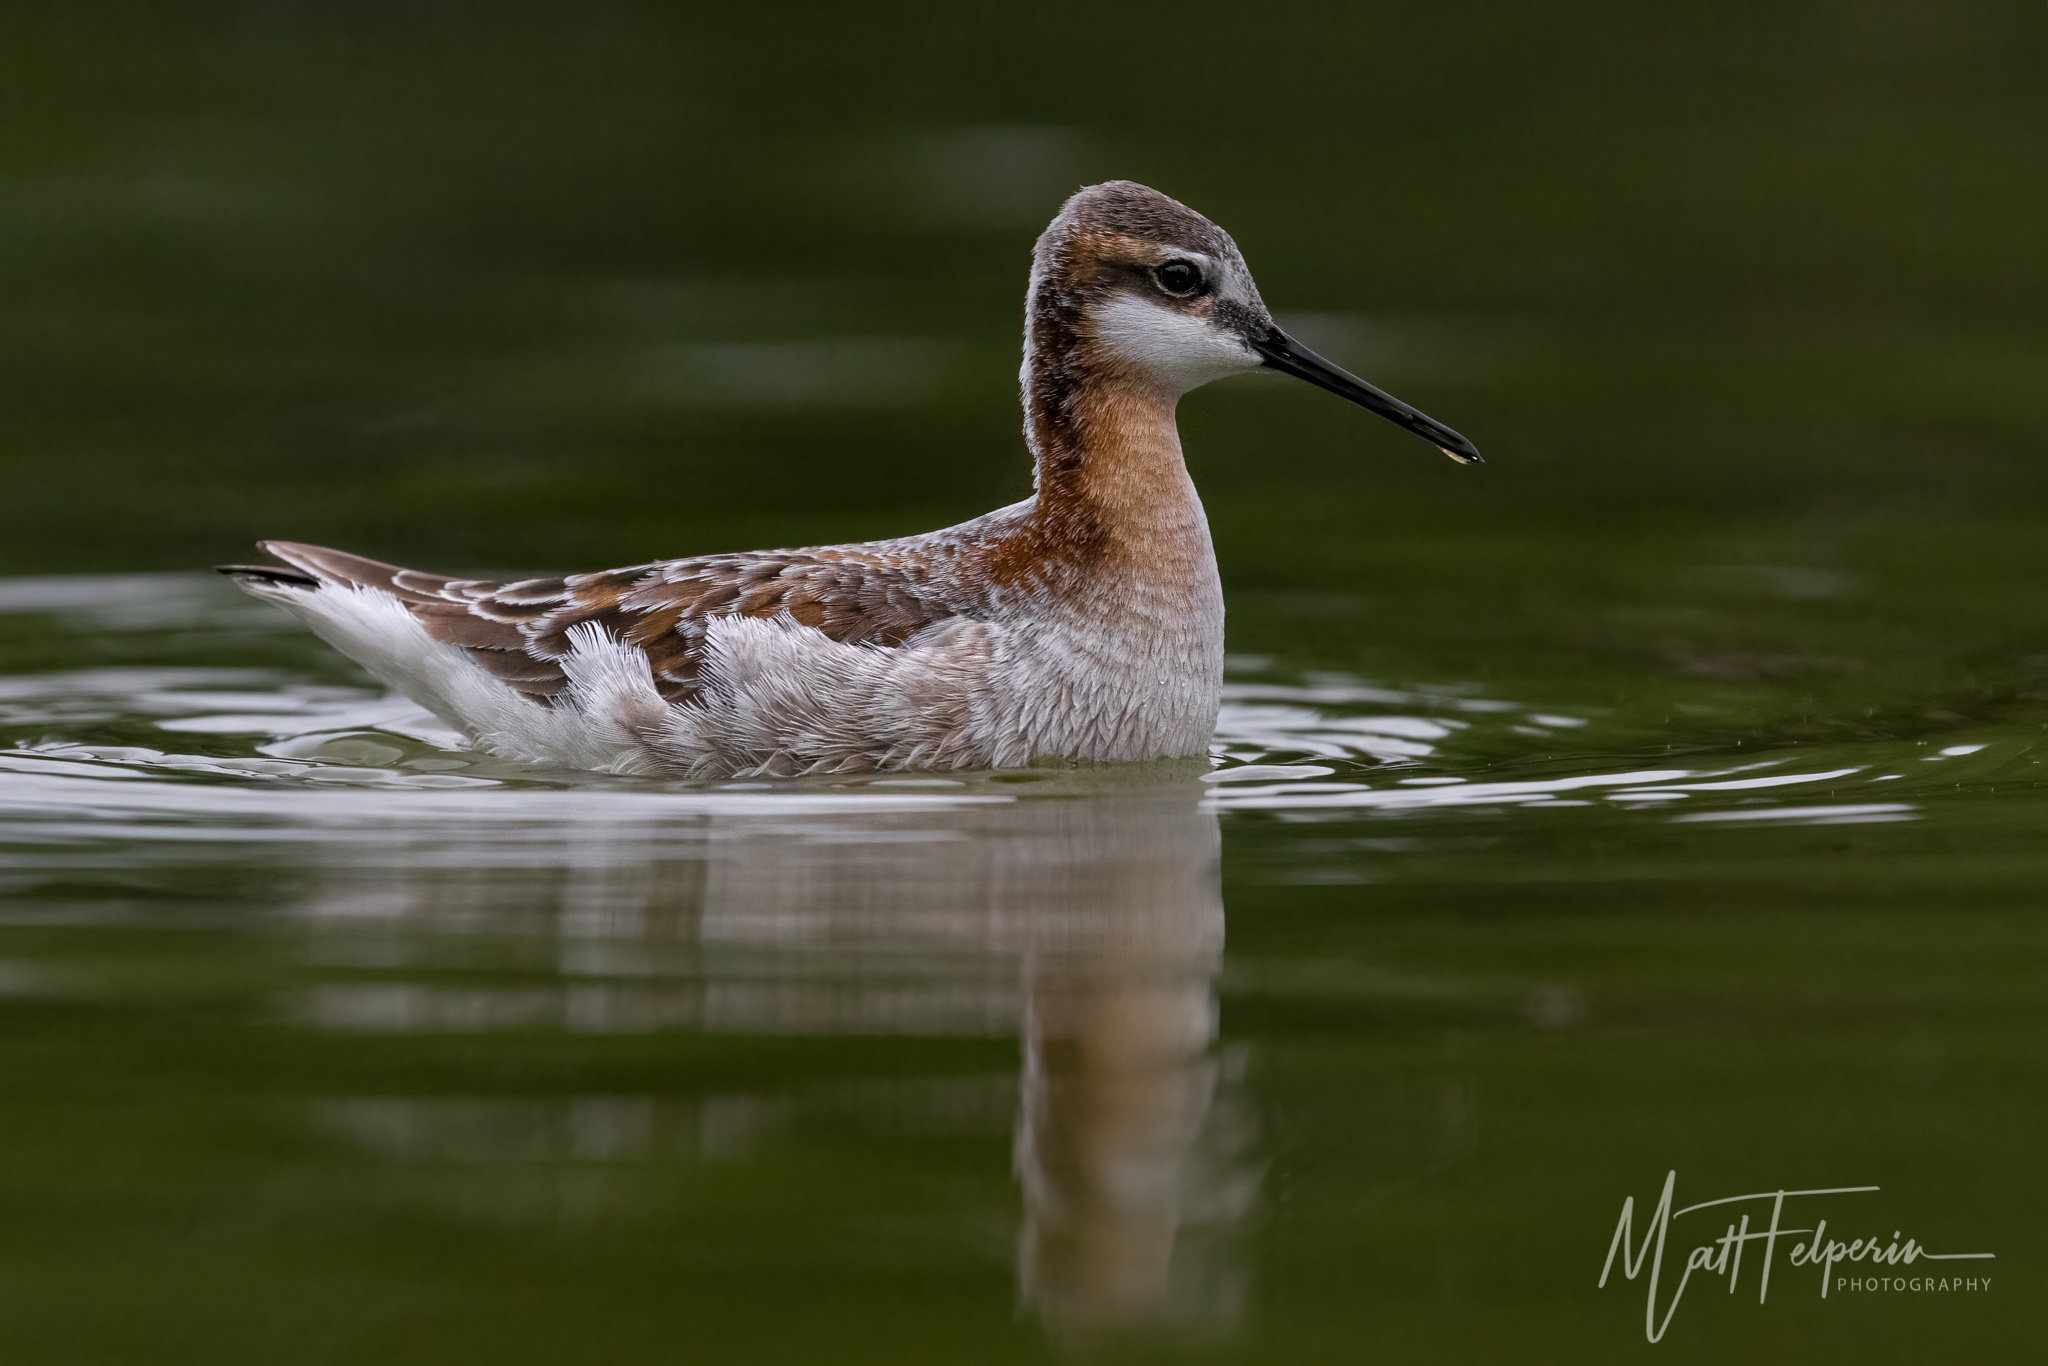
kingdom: Animalia
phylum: Chordata
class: Aves
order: Charadriiformes
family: Scolopacidae
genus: Phalaropus
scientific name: Phalaropus tricolor
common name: Wilson's phalarope
